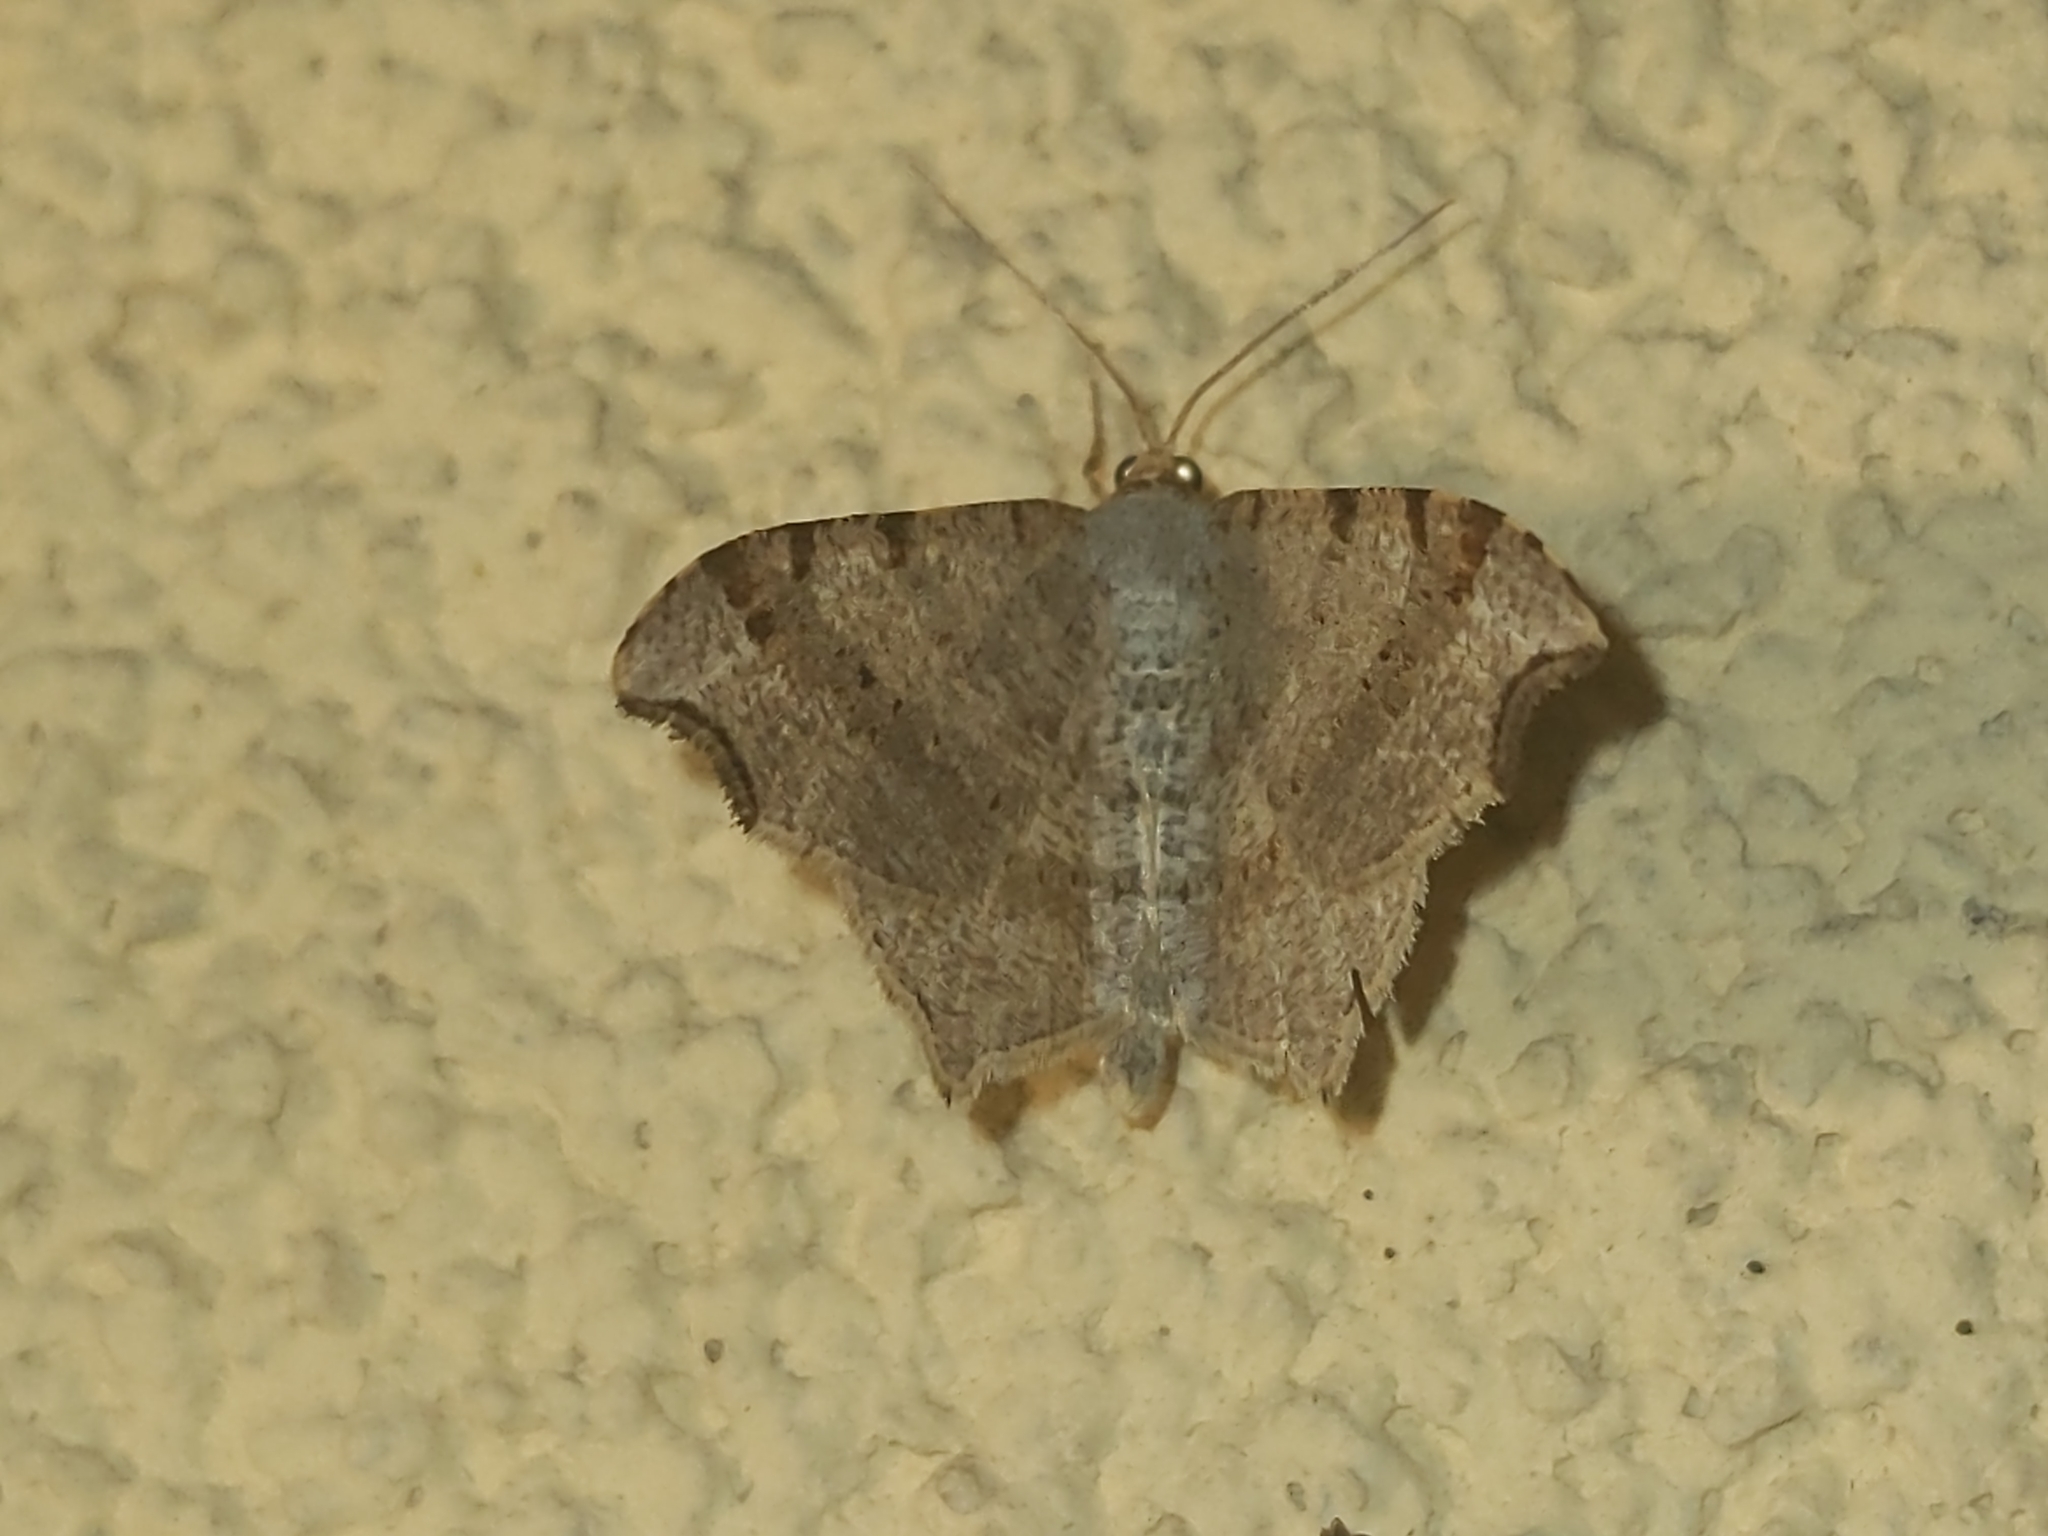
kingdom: Animalia
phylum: Arthropoda
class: Insecta
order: Lepidoptera
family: Geometridae
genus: Macaria
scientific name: Macaria alternata
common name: Sharp-angled peacock
